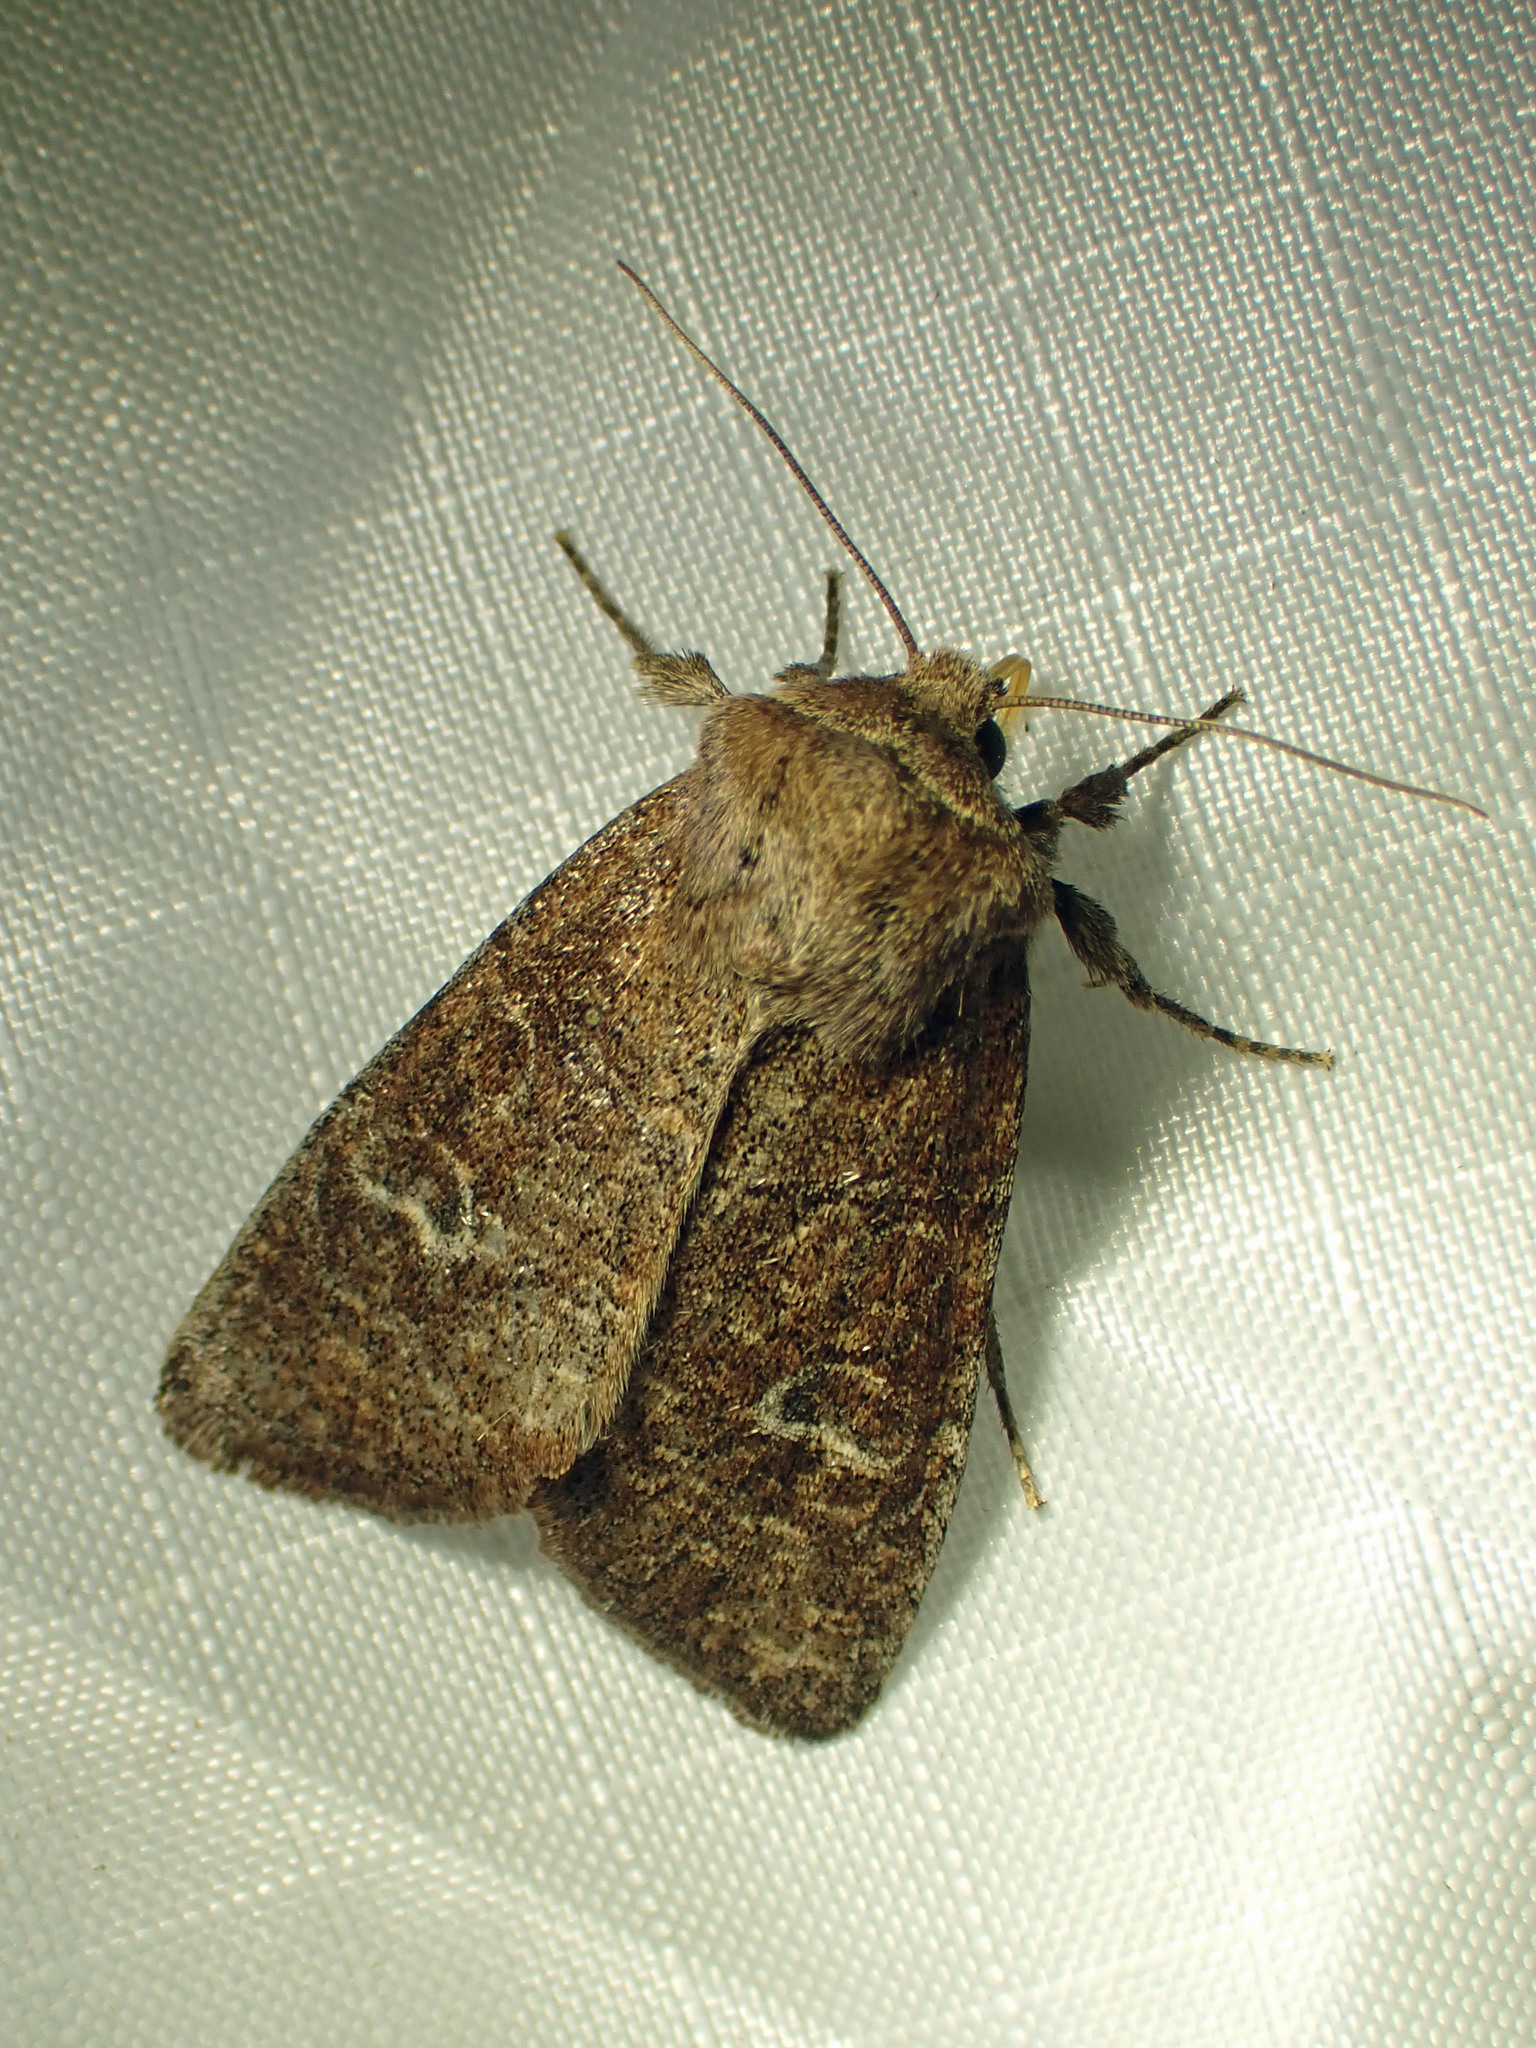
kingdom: Animalia
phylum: Arthropoda
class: Insecta
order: Lepidoptera
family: Noctuidae
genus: Orthosia
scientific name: Orthosia rubescens
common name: Ruby quaker
